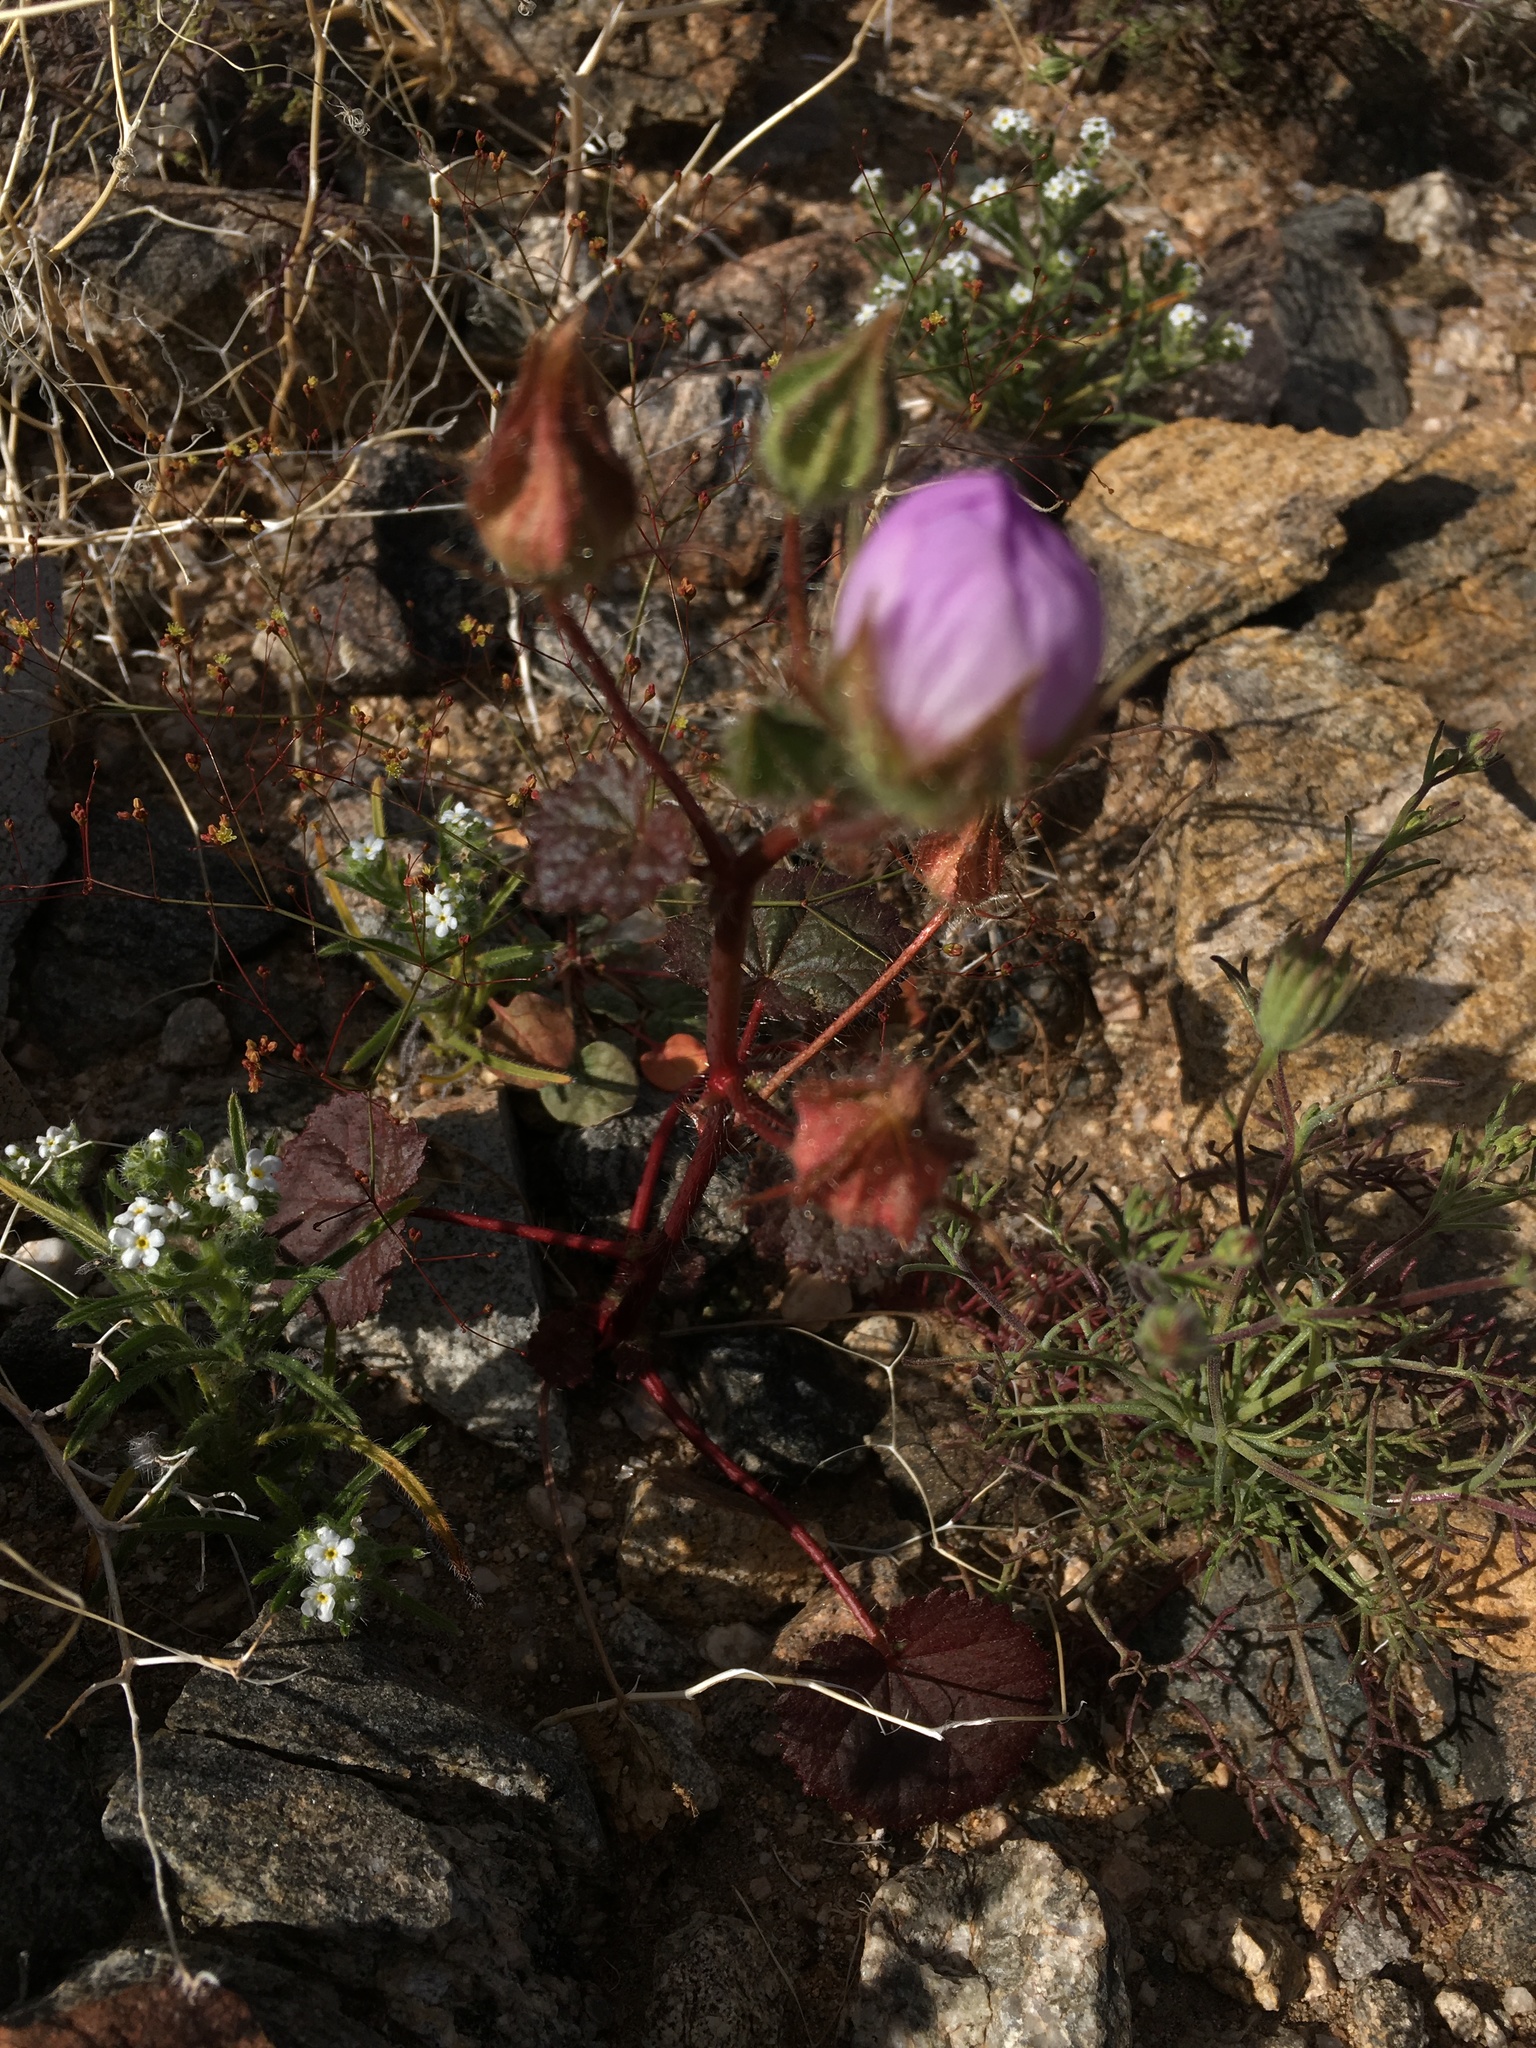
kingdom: Plantae
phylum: Tracheophyta
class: Magnoliopsida
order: Malvales
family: Malvaceae
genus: Eremalche
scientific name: Eremalche rotundifolia
